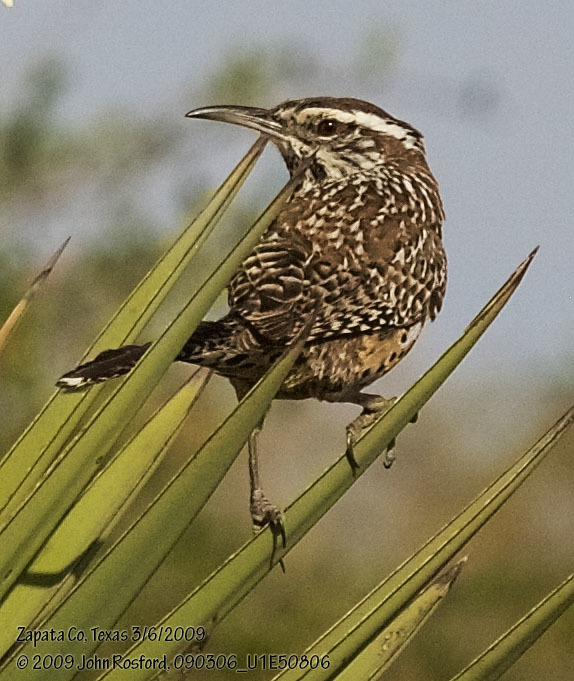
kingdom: Animalia
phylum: Chordata
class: Aves
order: Passeriformes
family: Troglodytidae
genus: Campylorhynchus
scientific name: Campylorhynchus brunneicapillus
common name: Cactus wren
